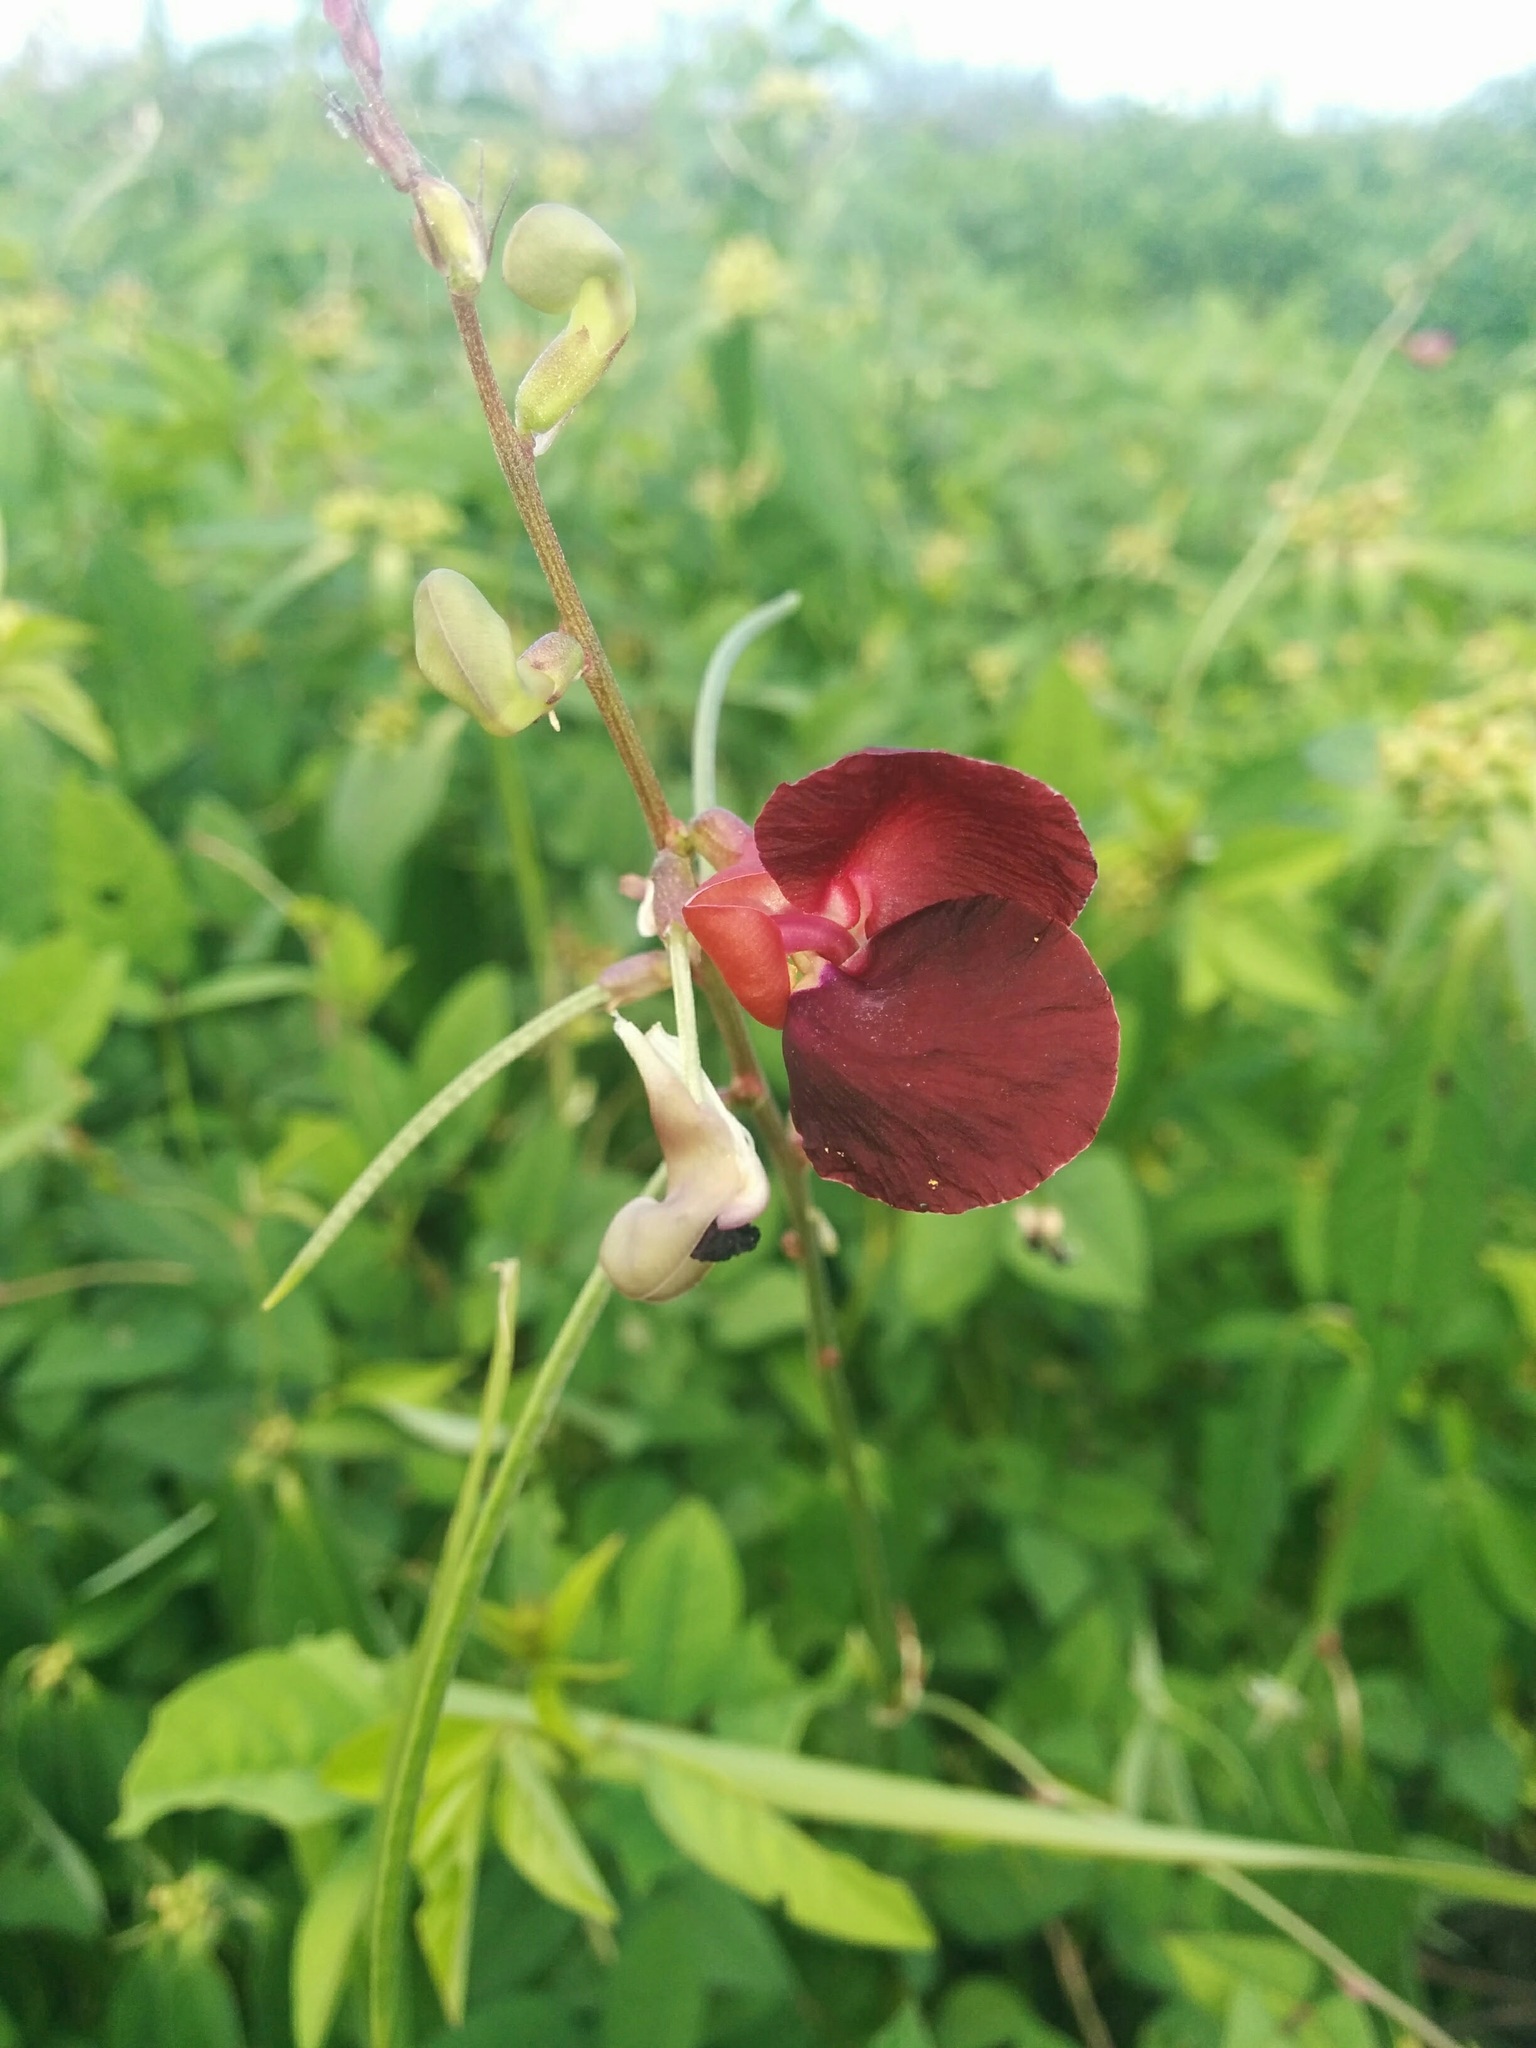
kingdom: Plantae
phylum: Tracheophyta
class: Magnoliopsida
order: Fabales
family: Fabaceae
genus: Macroptilium
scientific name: Macroptilium lathyroides
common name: Wild bushbean
